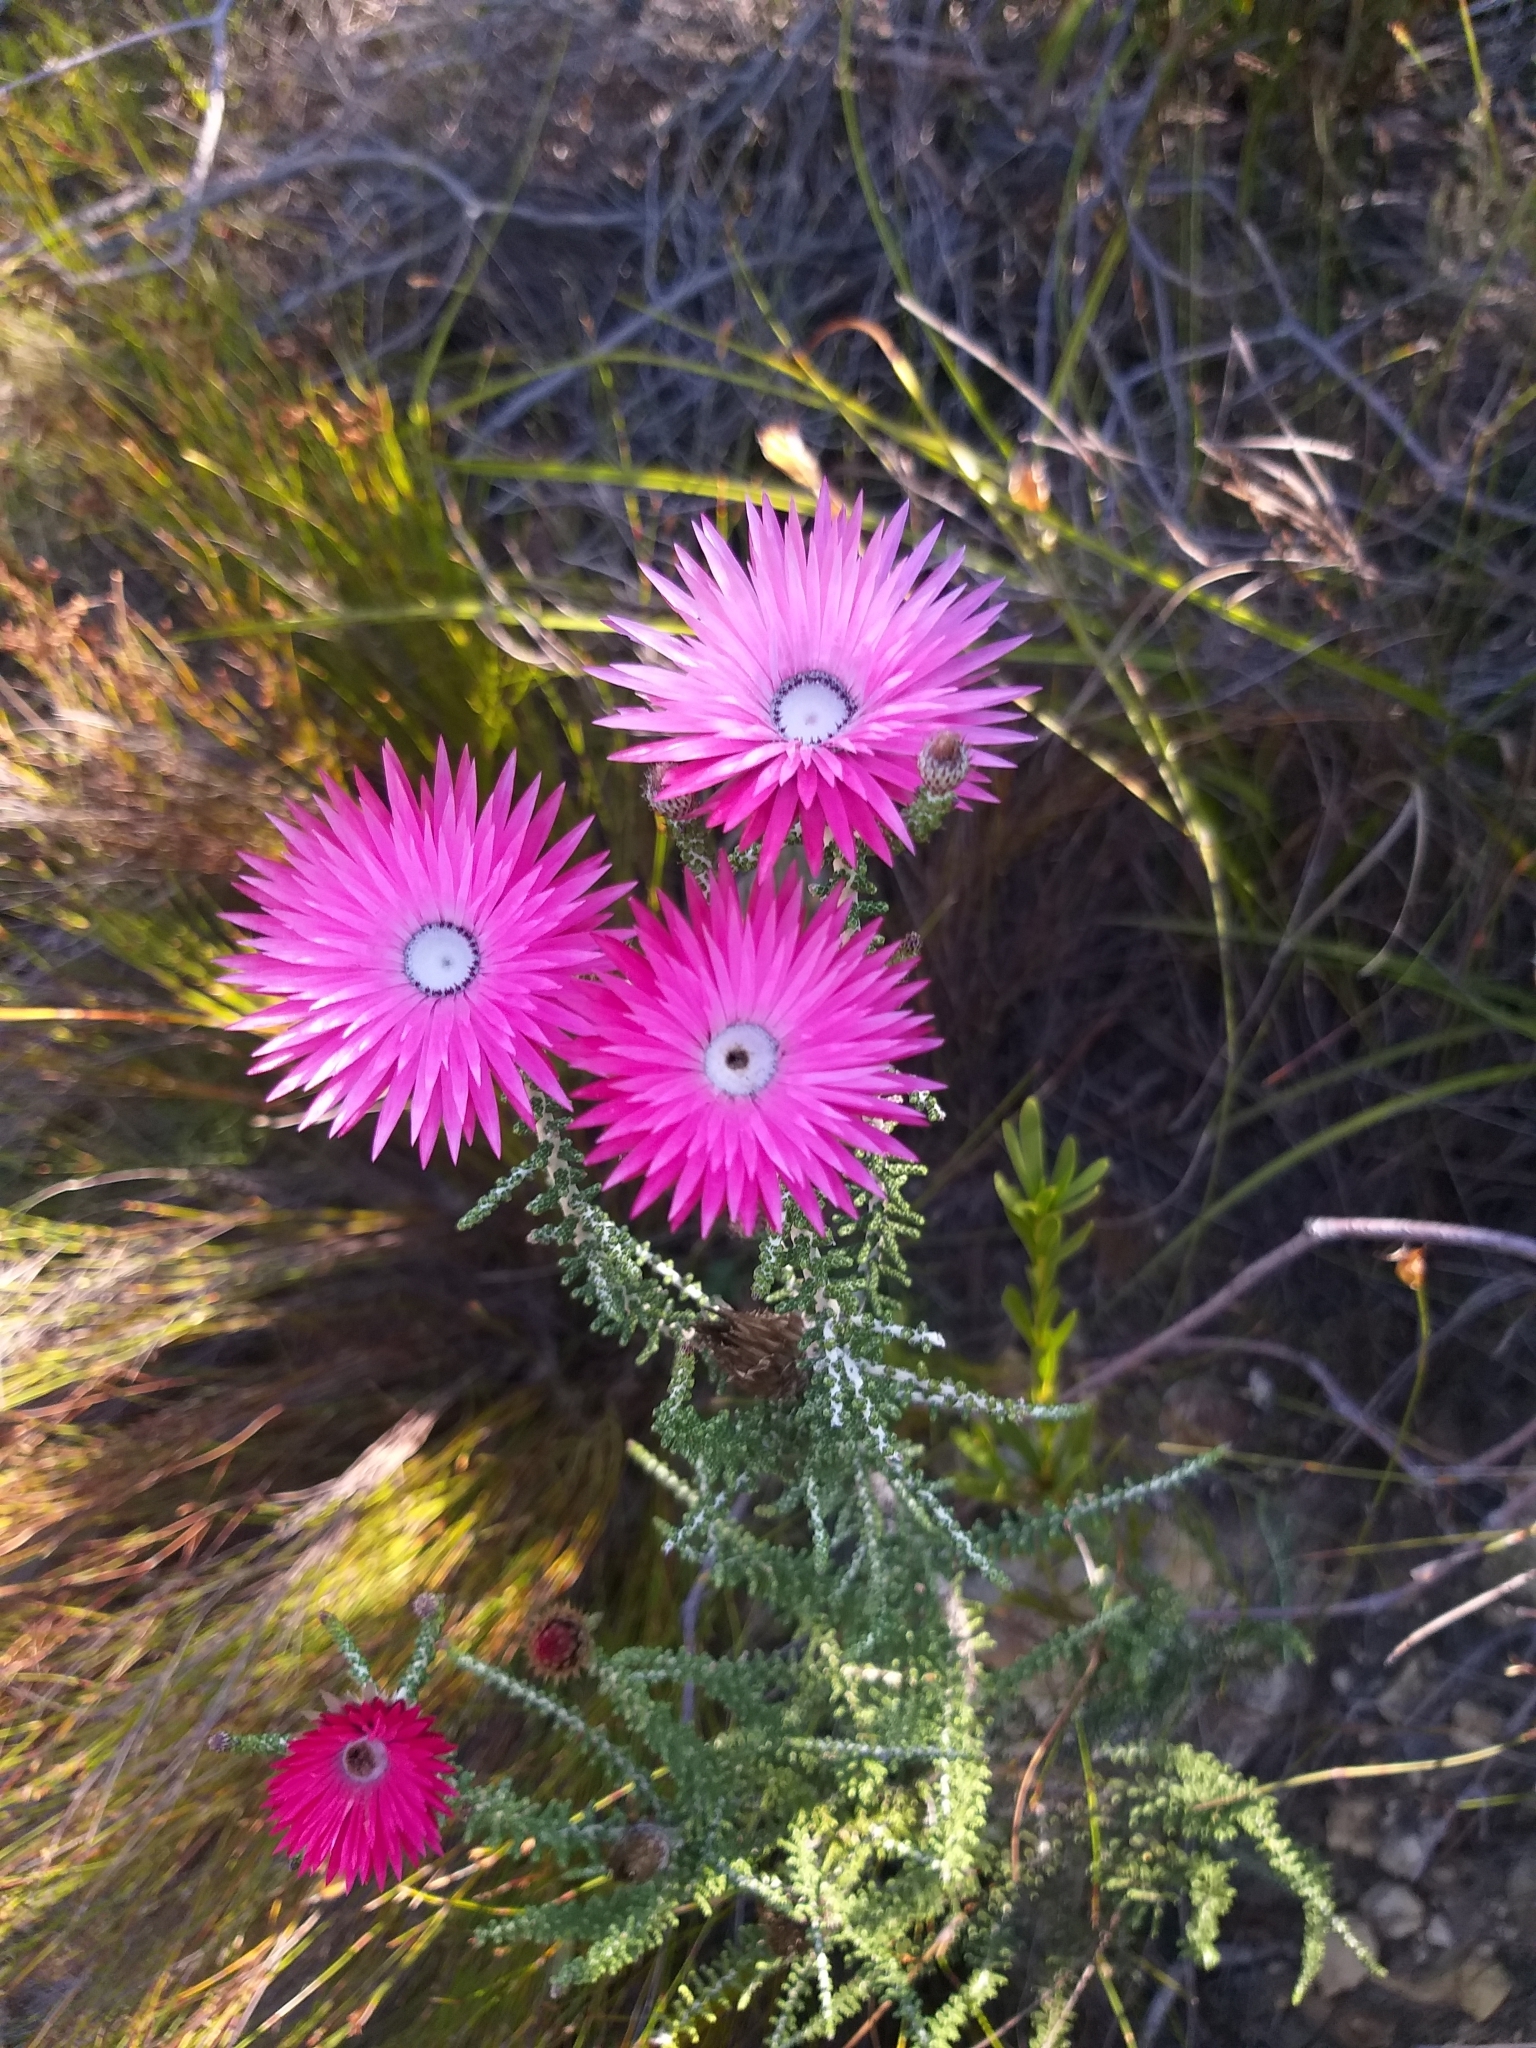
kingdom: Plantae
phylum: Tracheophyta
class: Magnoliopsida
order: Asterales
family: Asteraceae
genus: Phaenocoma
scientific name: Phaenocoma prolifera
